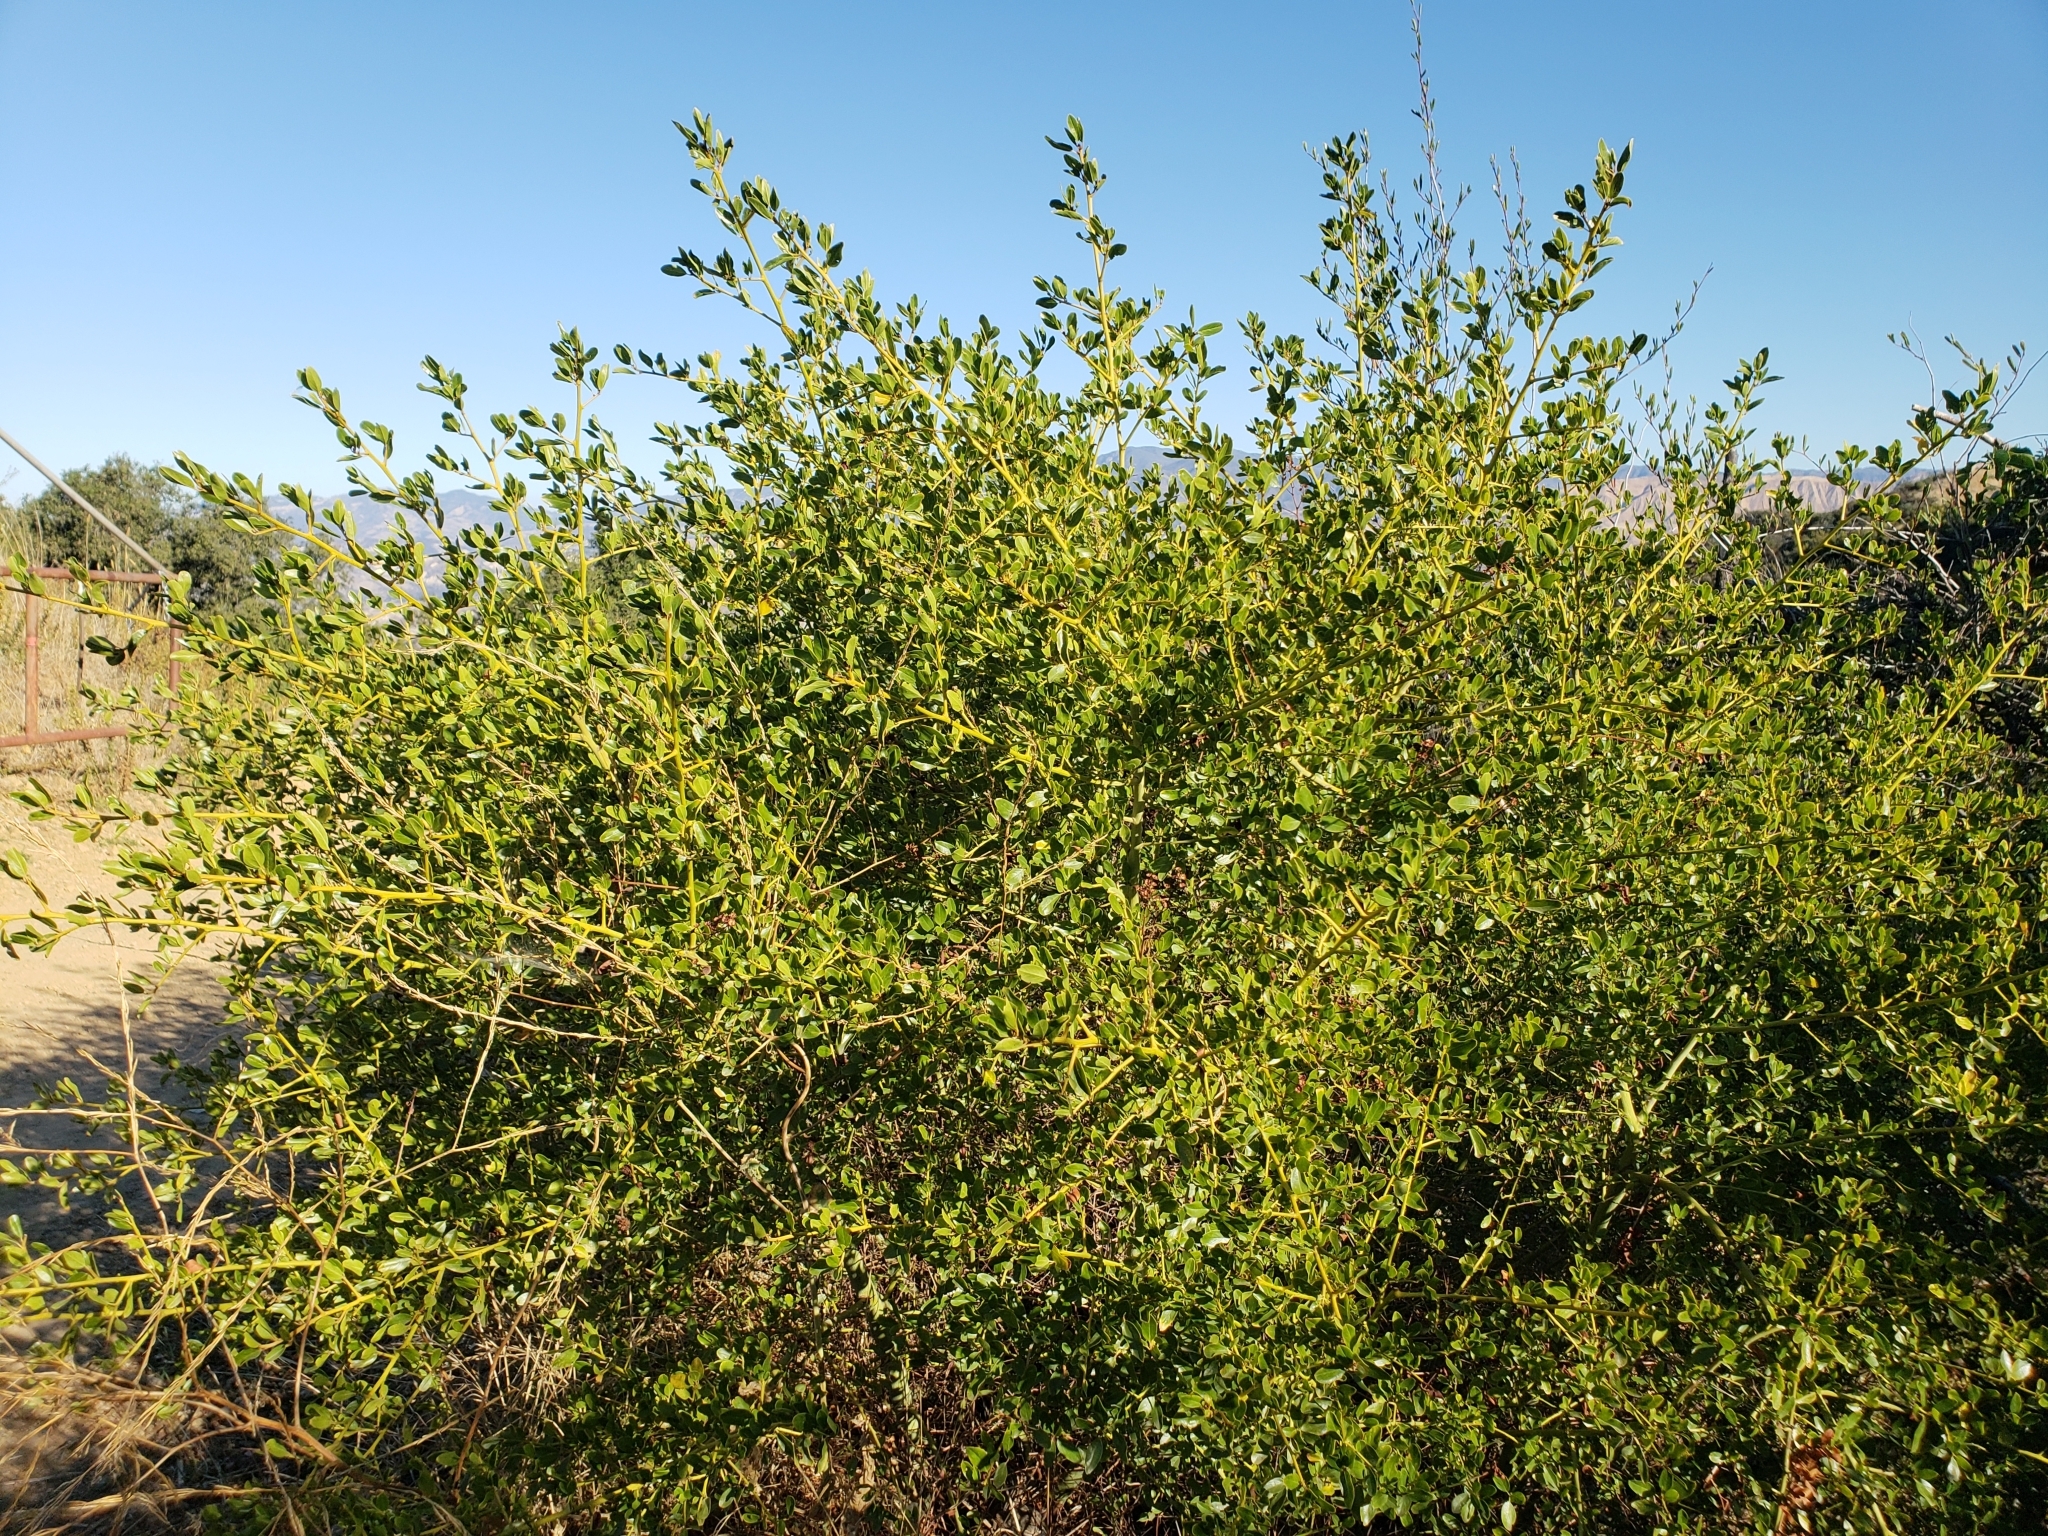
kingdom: Plantae
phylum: Tracheophyta
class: Magnoliopsida
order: Rosales
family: Rhamnaceae
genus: Ceanothus
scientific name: Ceanothus spinosus
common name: Greenbark whitethorn
